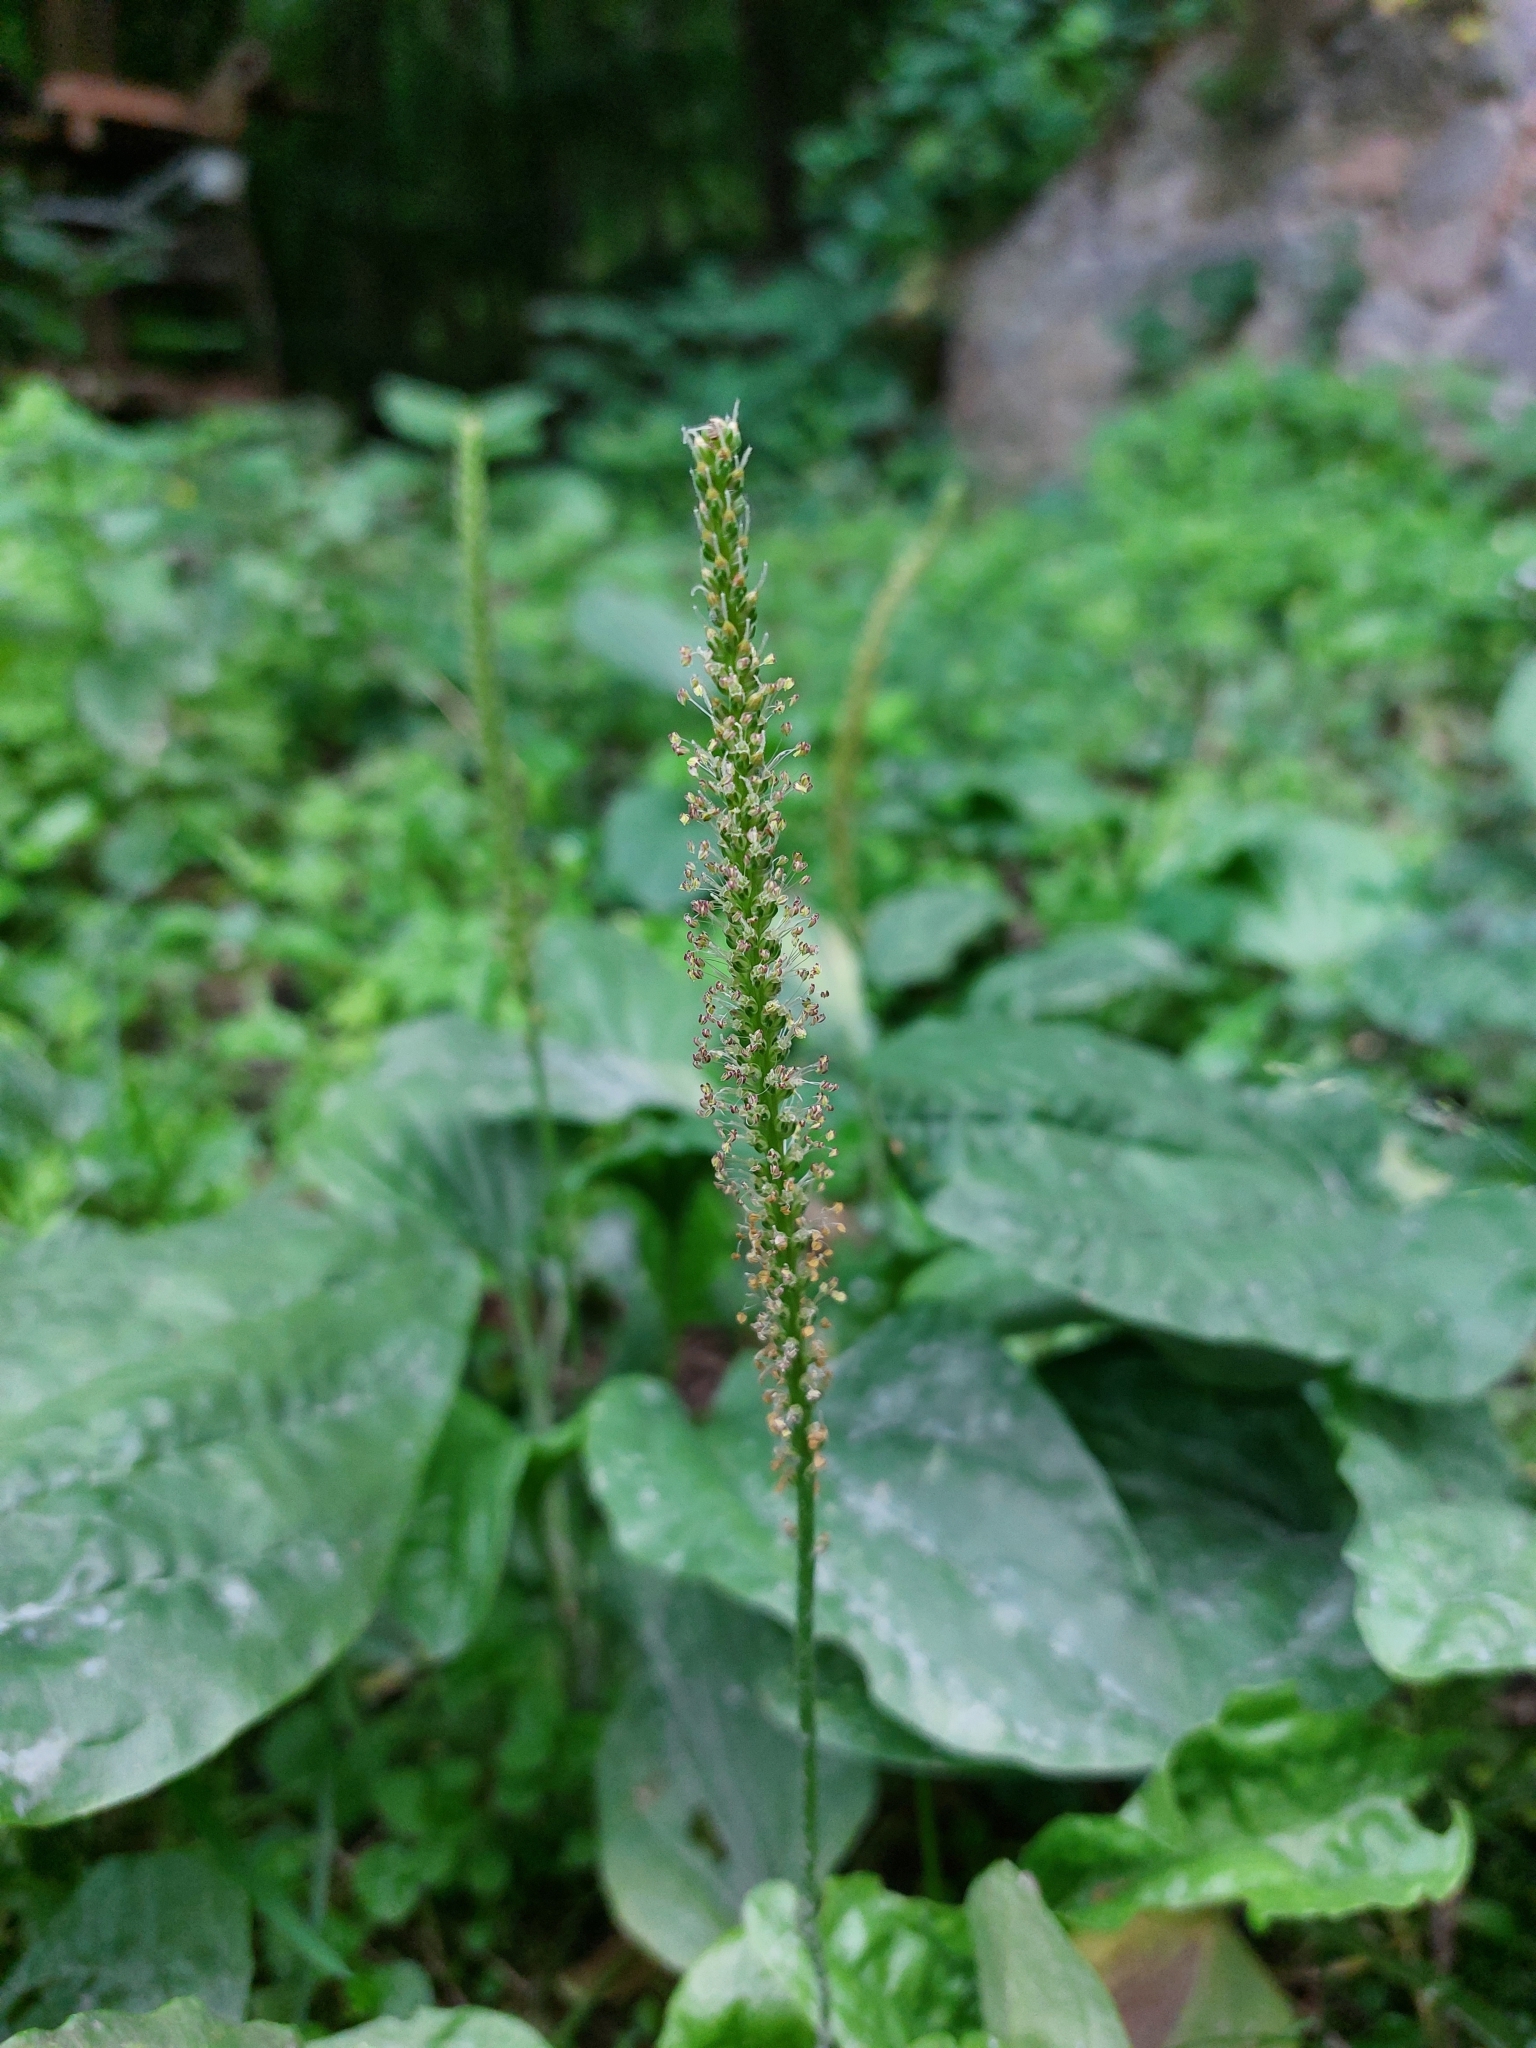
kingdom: Plantae
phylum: Tracheophyta
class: Magnoliopsida
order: Lamiales
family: Plantaginaceae
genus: Plantago
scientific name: Plantago major
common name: Common plantain
